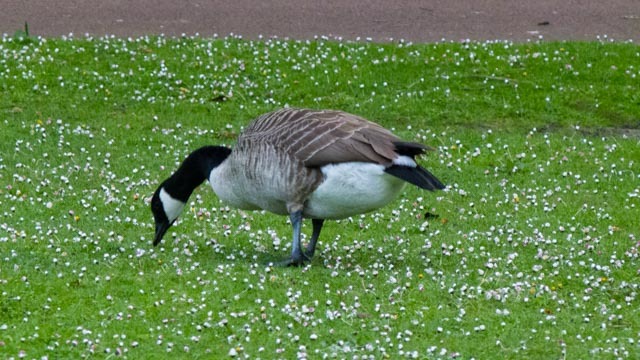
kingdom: Animalia
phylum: Chordata
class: Aves
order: Anseriformes
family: Anatidae
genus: Branta
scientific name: Branta canadensis
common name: Canada goose
